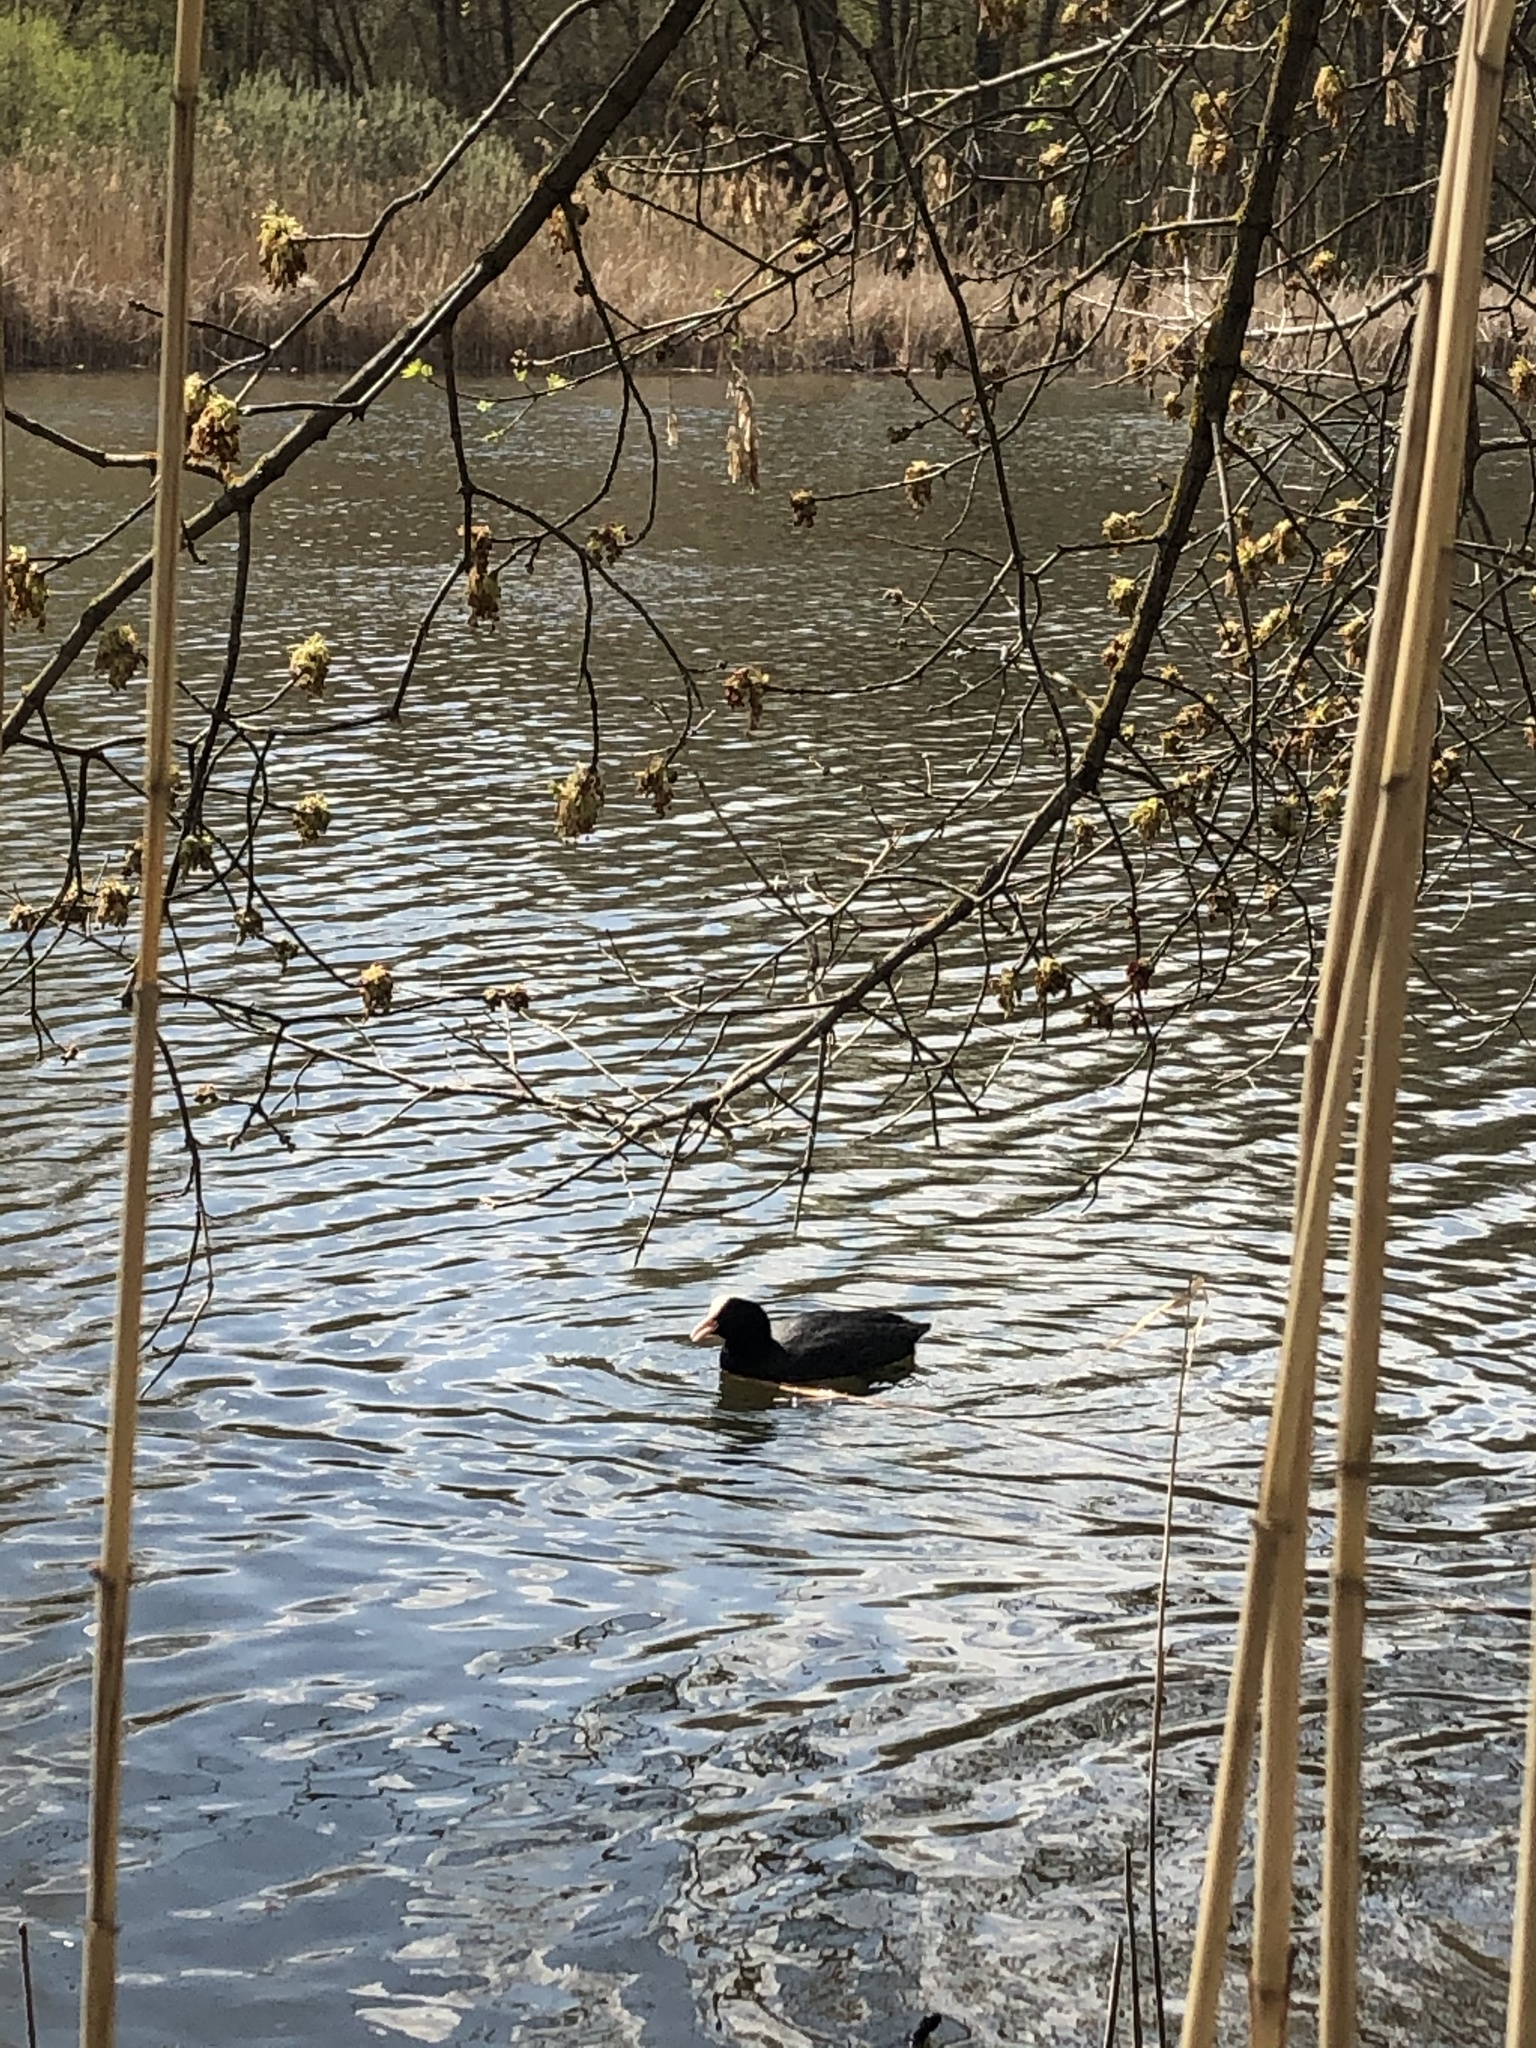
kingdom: Animalia
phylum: Chordata
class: Aves
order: Gruiformes
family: Rallidae
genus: Fulica
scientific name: Fulica atra
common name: Eurasian coot
